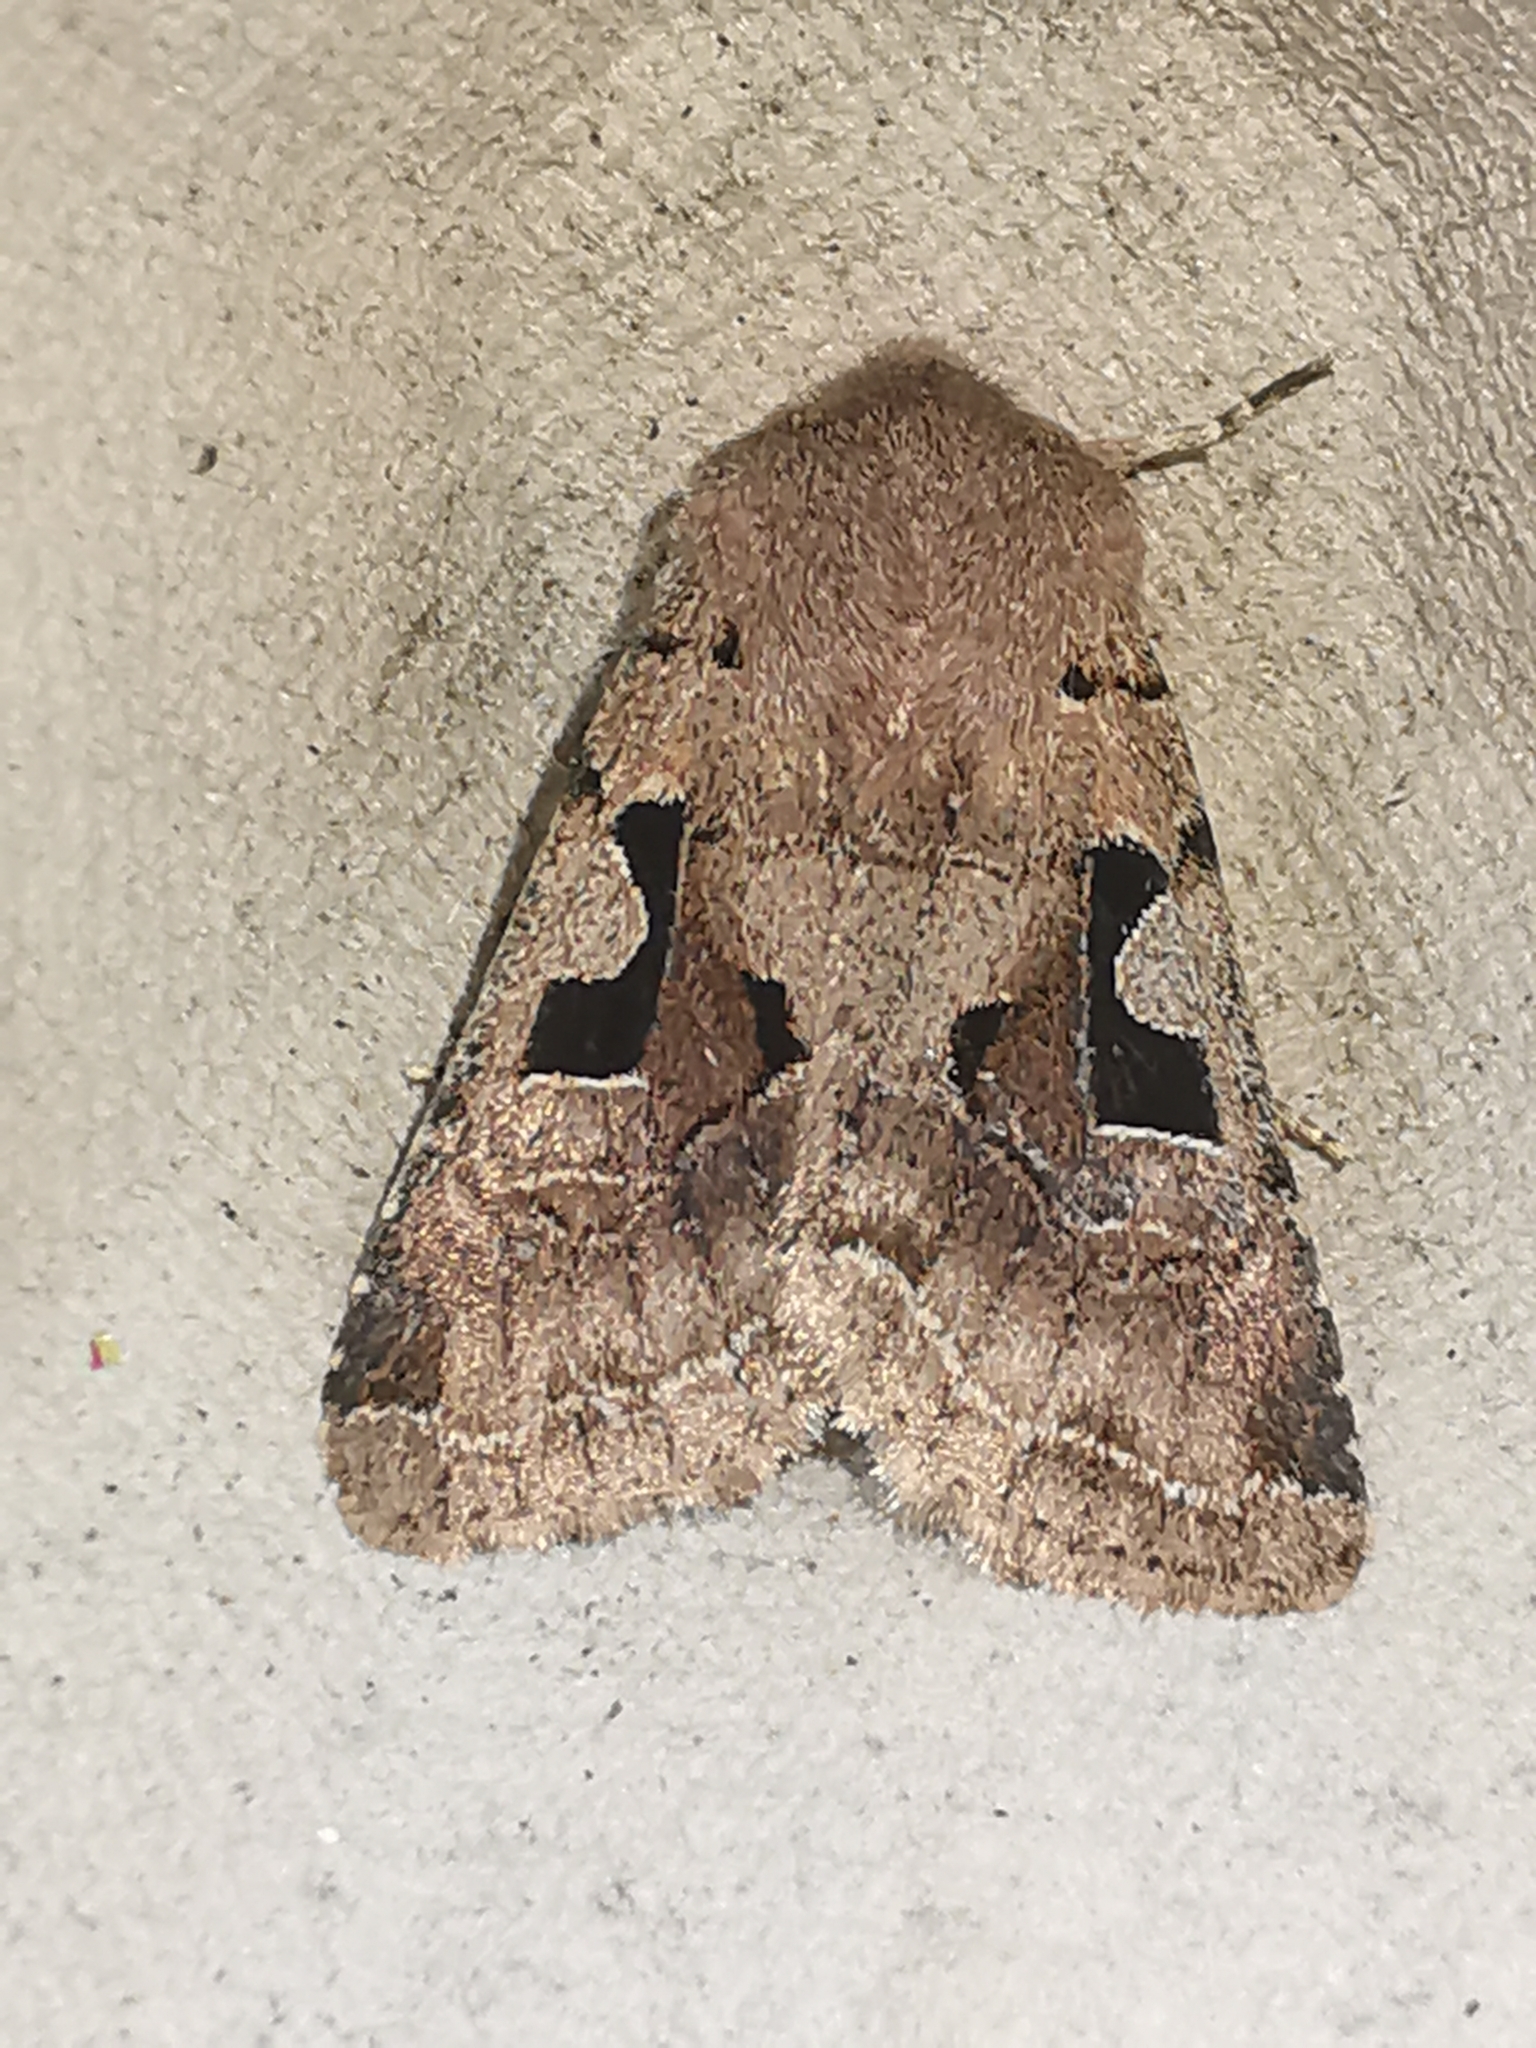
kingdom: Animalia
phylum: Arthropoda
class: Insecta
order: Lepidoptera
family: Noctuidae
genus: Orthosia
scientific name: Orthosia gothica
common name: Hebrew character
